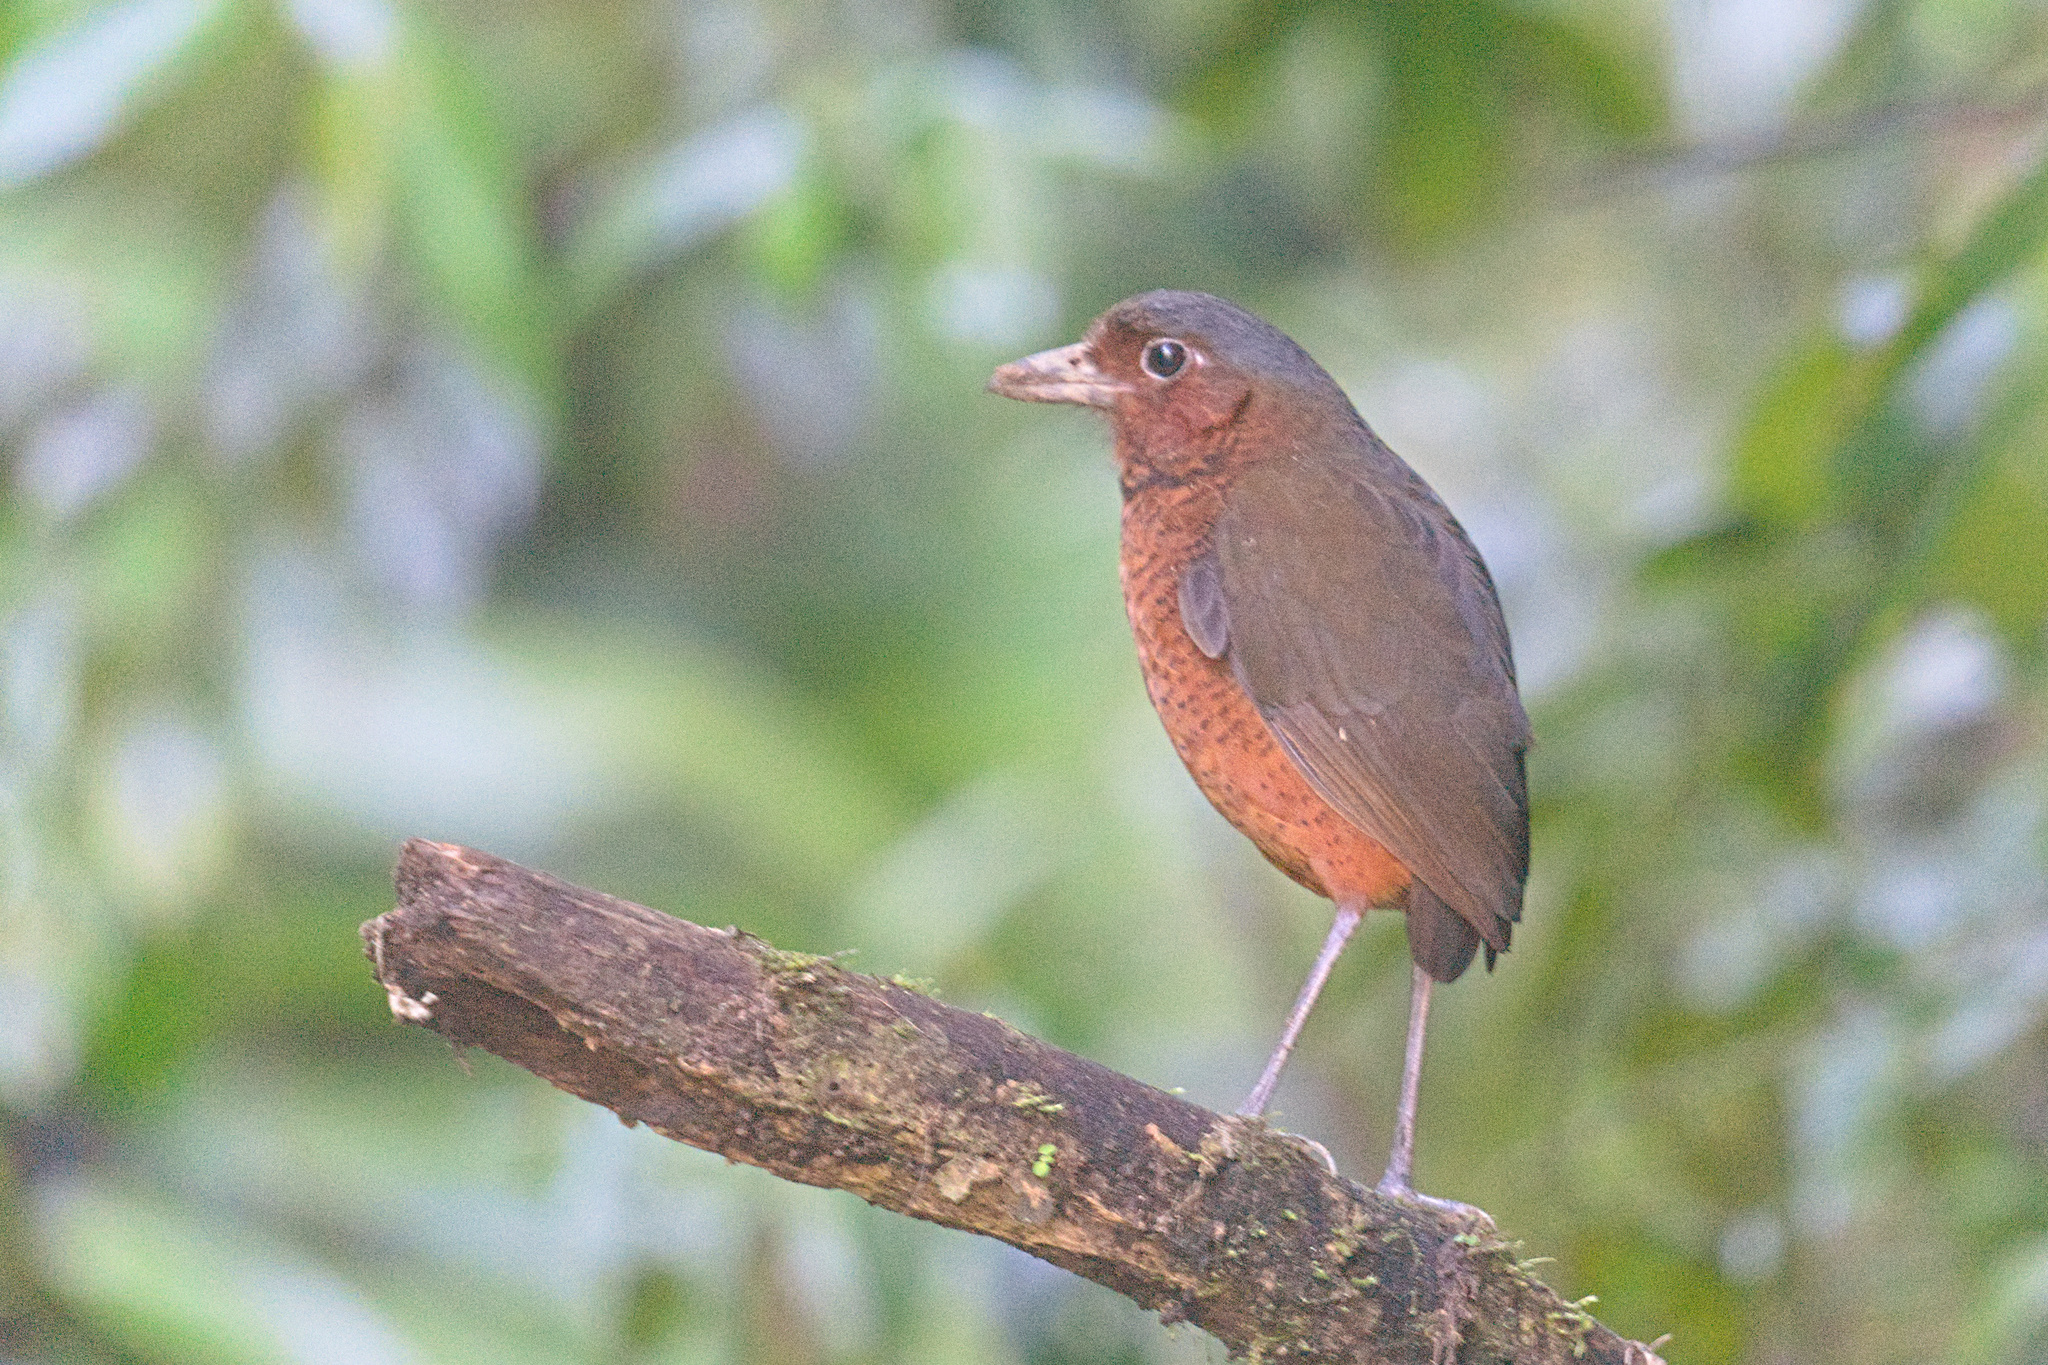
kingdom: Animalia
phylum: Chordata
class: Aves
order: Passeriformes
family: Grallariidae
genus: Grallaria
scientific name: Grallaria gigantea
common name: Giant antpitta
